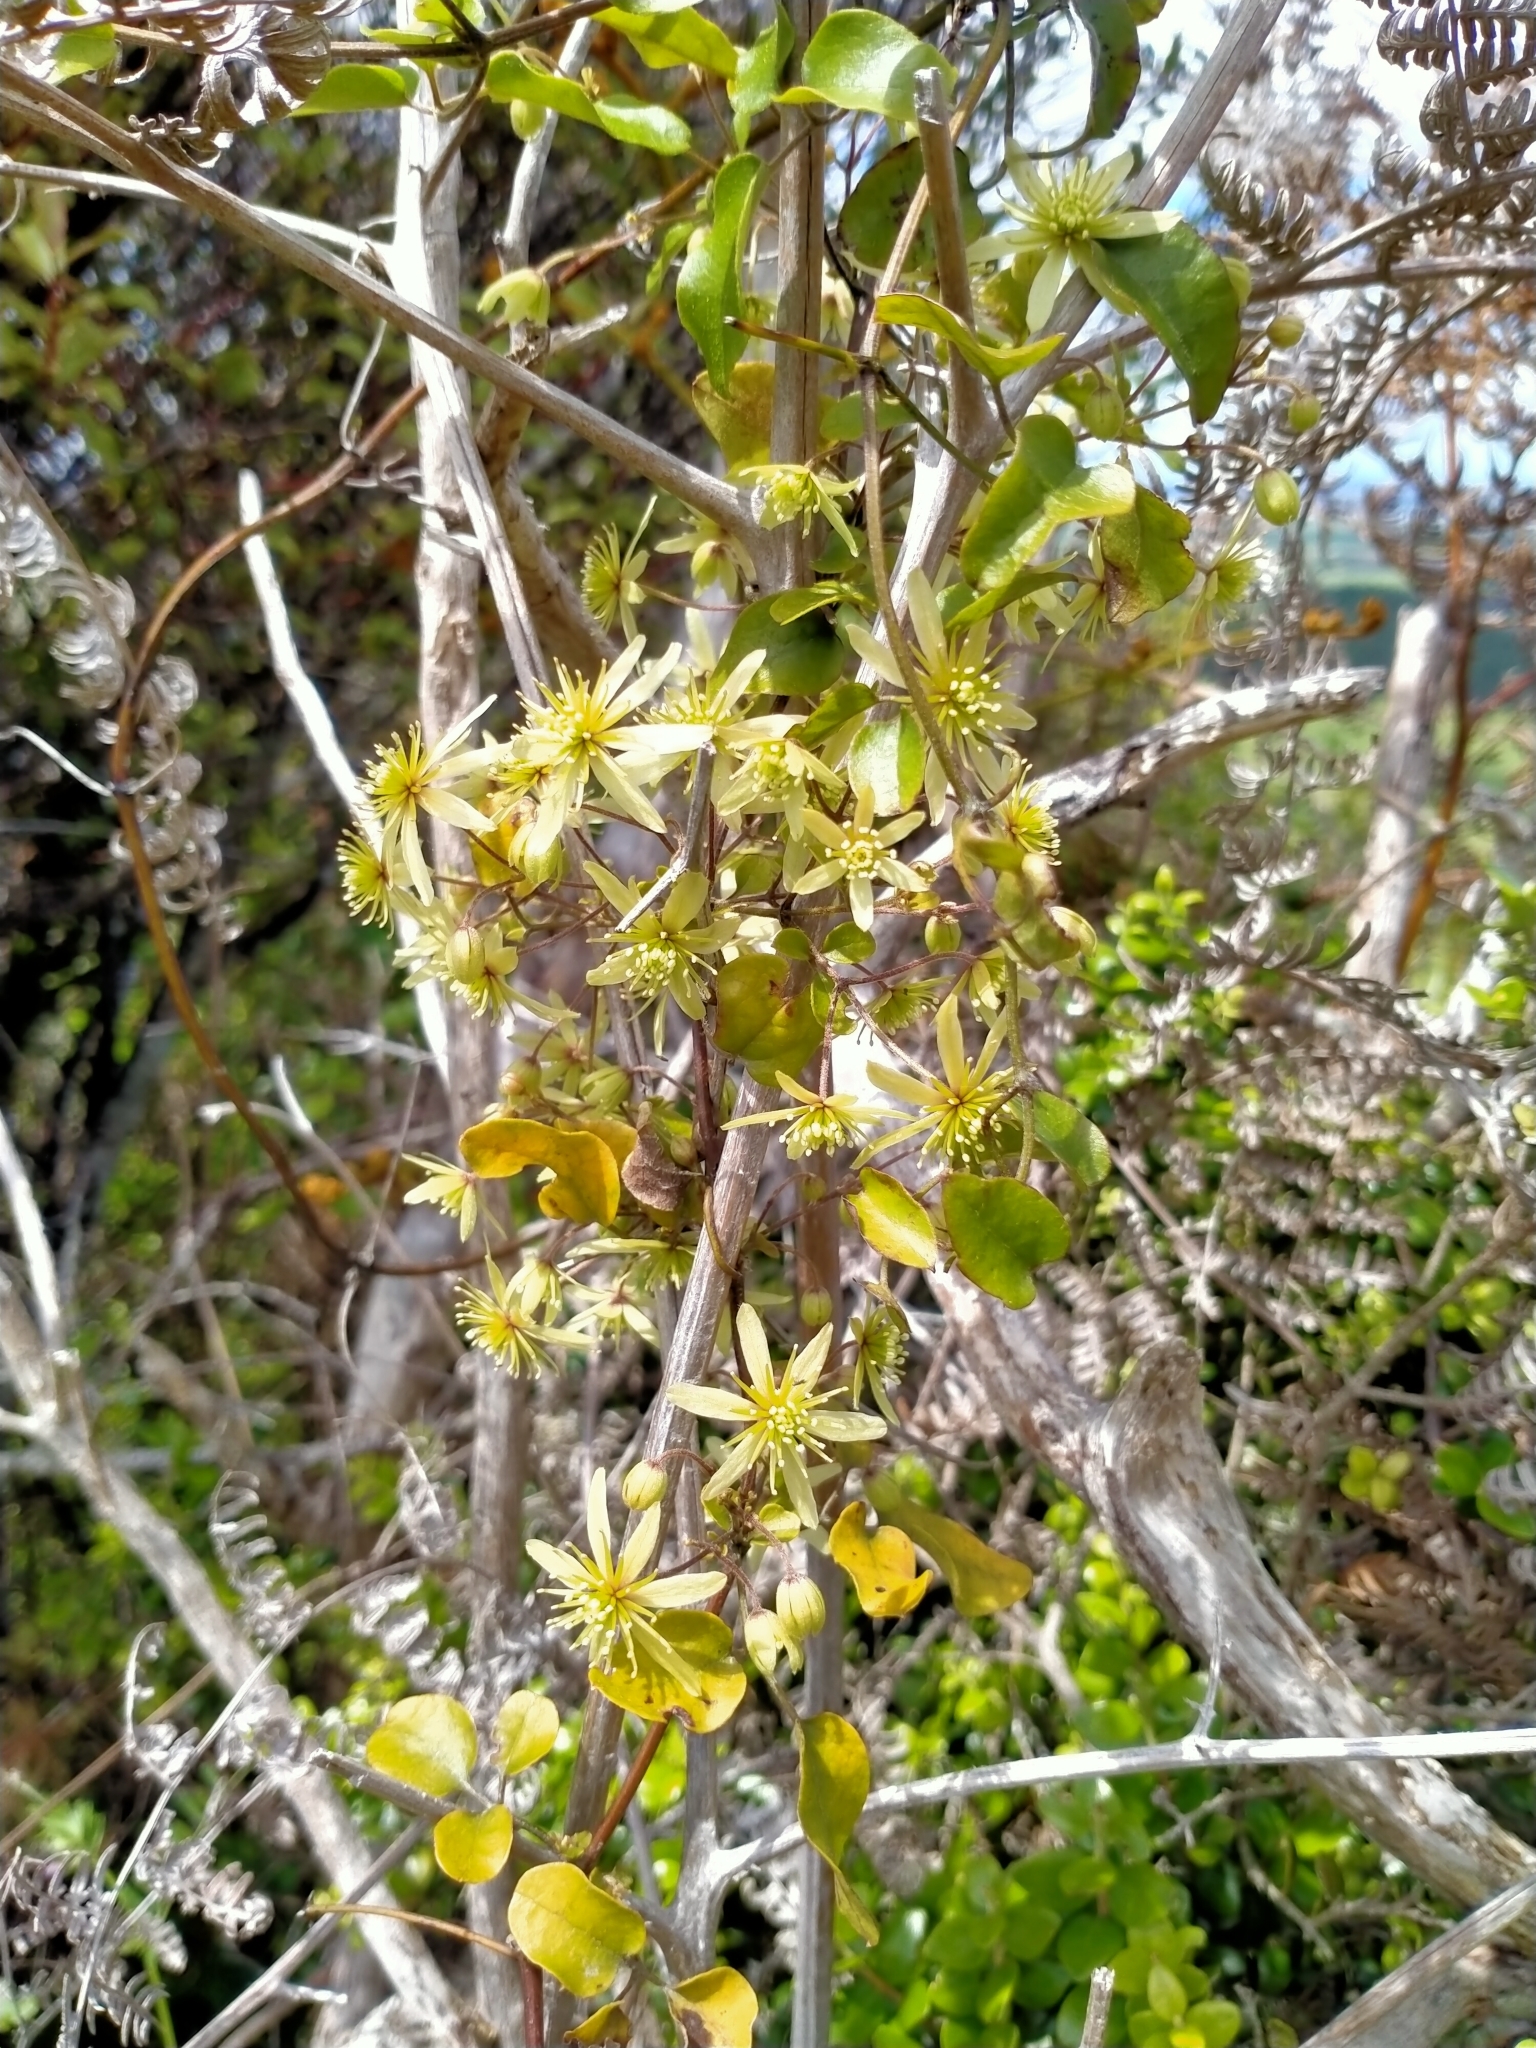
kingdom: Plantae
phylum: Tracheophyta
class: Magnoliopsida
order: Ranunculales
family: Ranunculaceae
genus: Clematis
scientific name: Clematis cunninghamii
